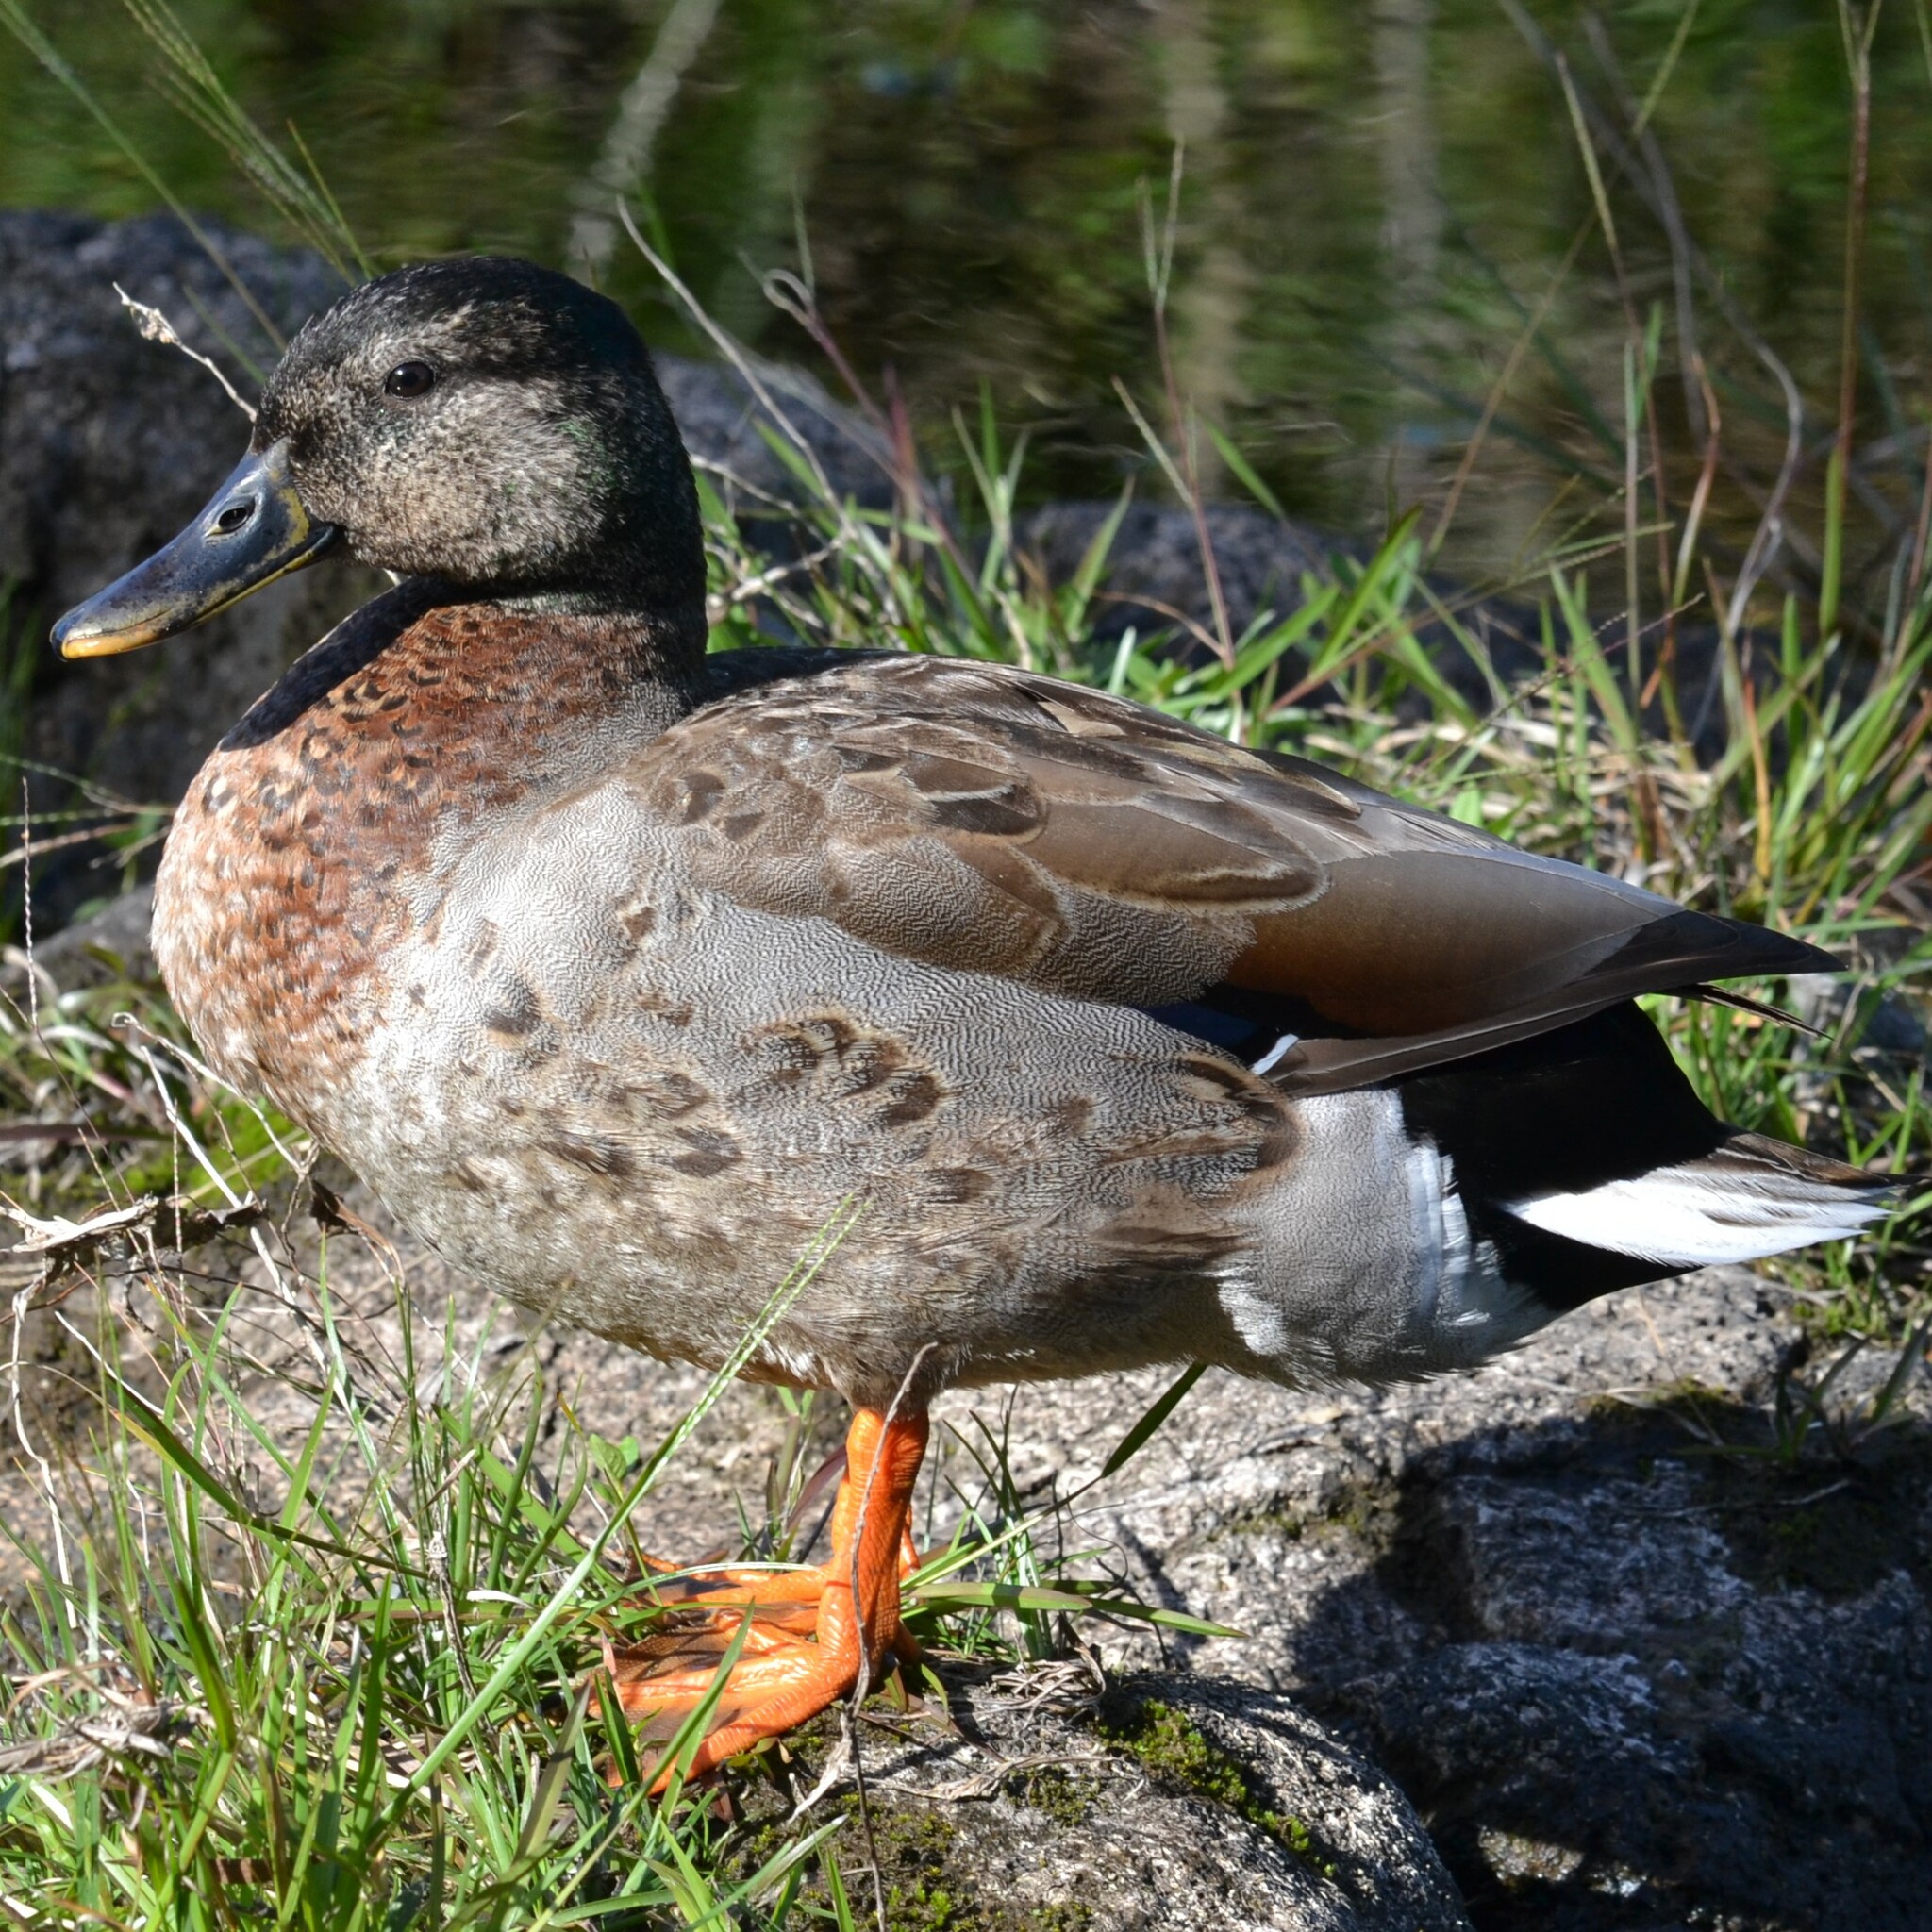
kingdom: Animalia
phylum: Chordata
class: Aves
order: Anseriformes
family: Anatidae
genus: Anas
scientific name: Anas
